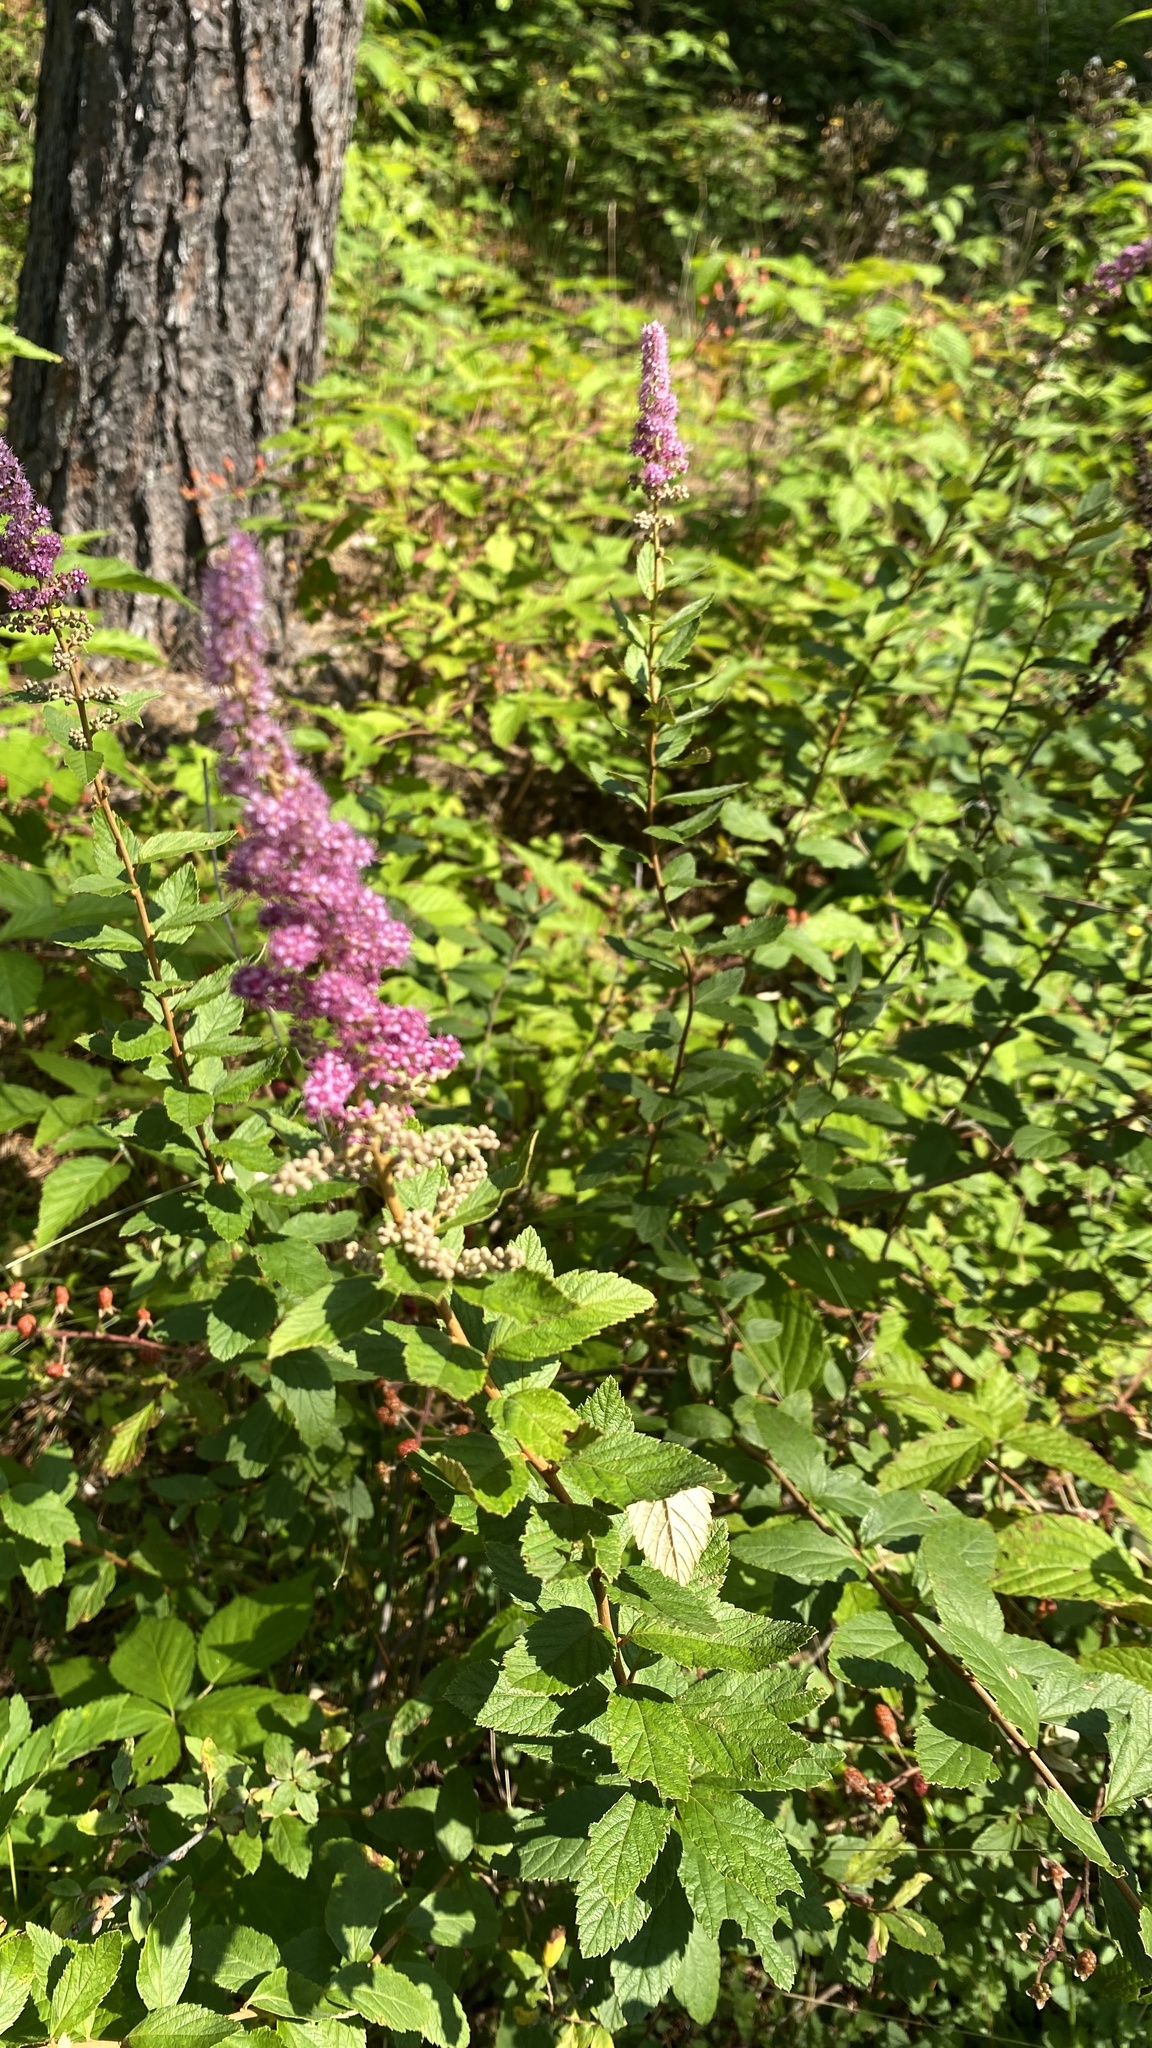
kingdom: Plantae
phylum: Tracheophyta
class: Magnoliopsida
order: Rosales
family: Rosaceae
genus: Spiraea
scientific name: Spiraea tomentosa
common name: Hardhack
